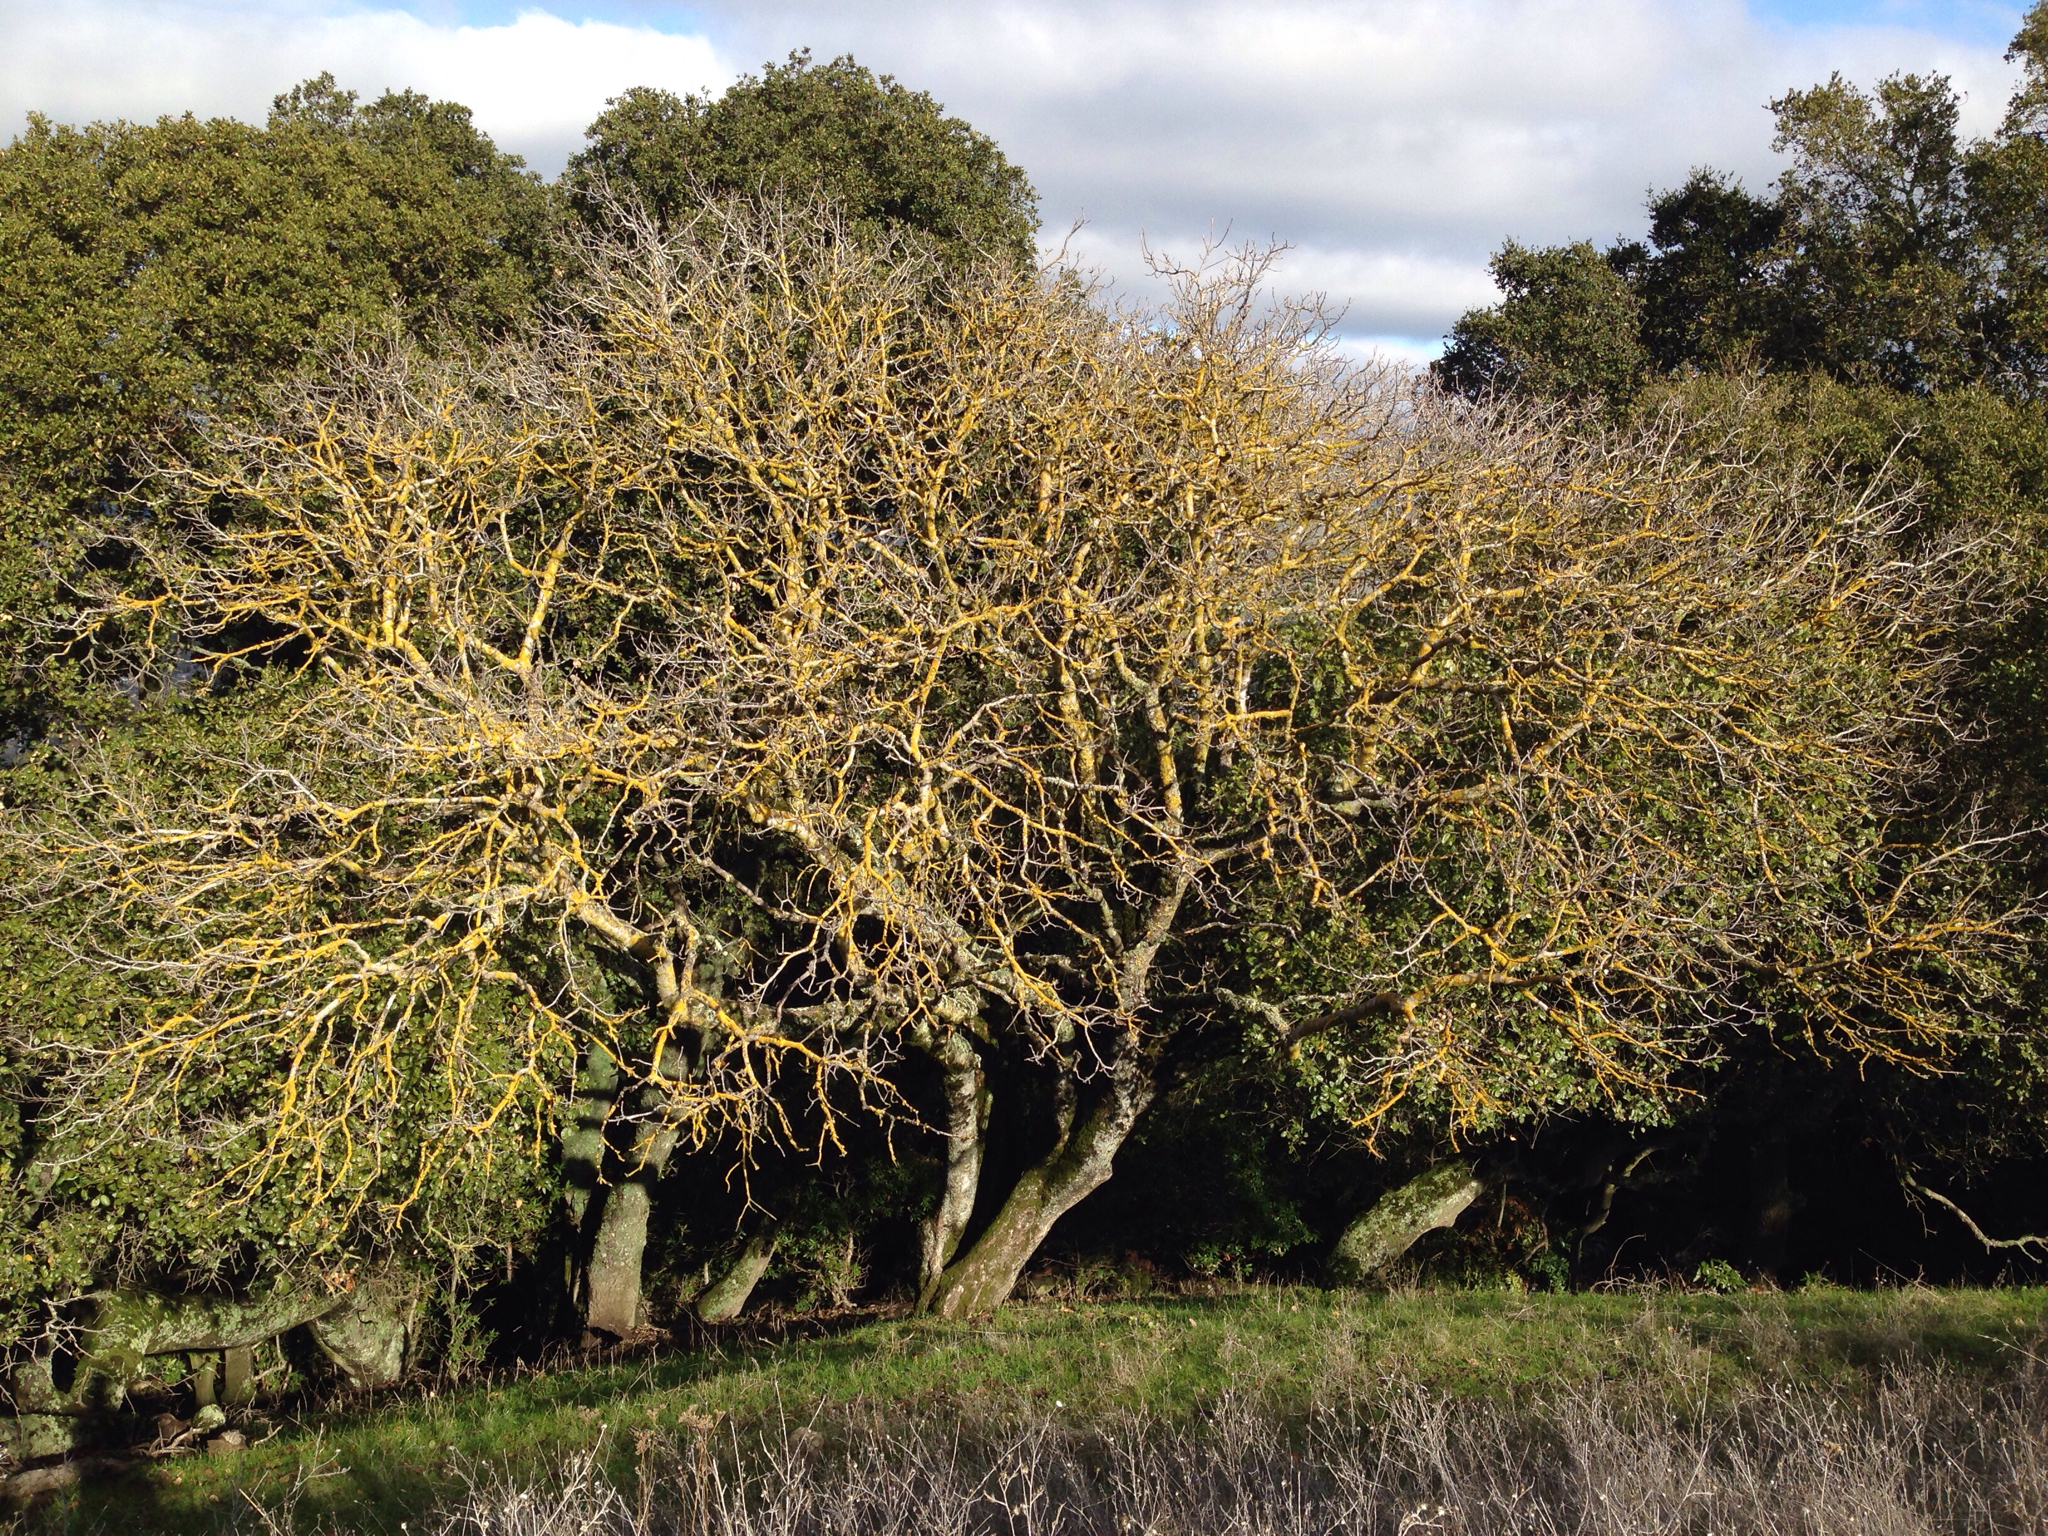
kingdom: Plantae
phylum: Tracheophyta
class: Magnoliopsida
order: Sapindales
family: Sapindaceae
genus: Aesculus
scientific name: Aesculus californica
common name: California buckeye
